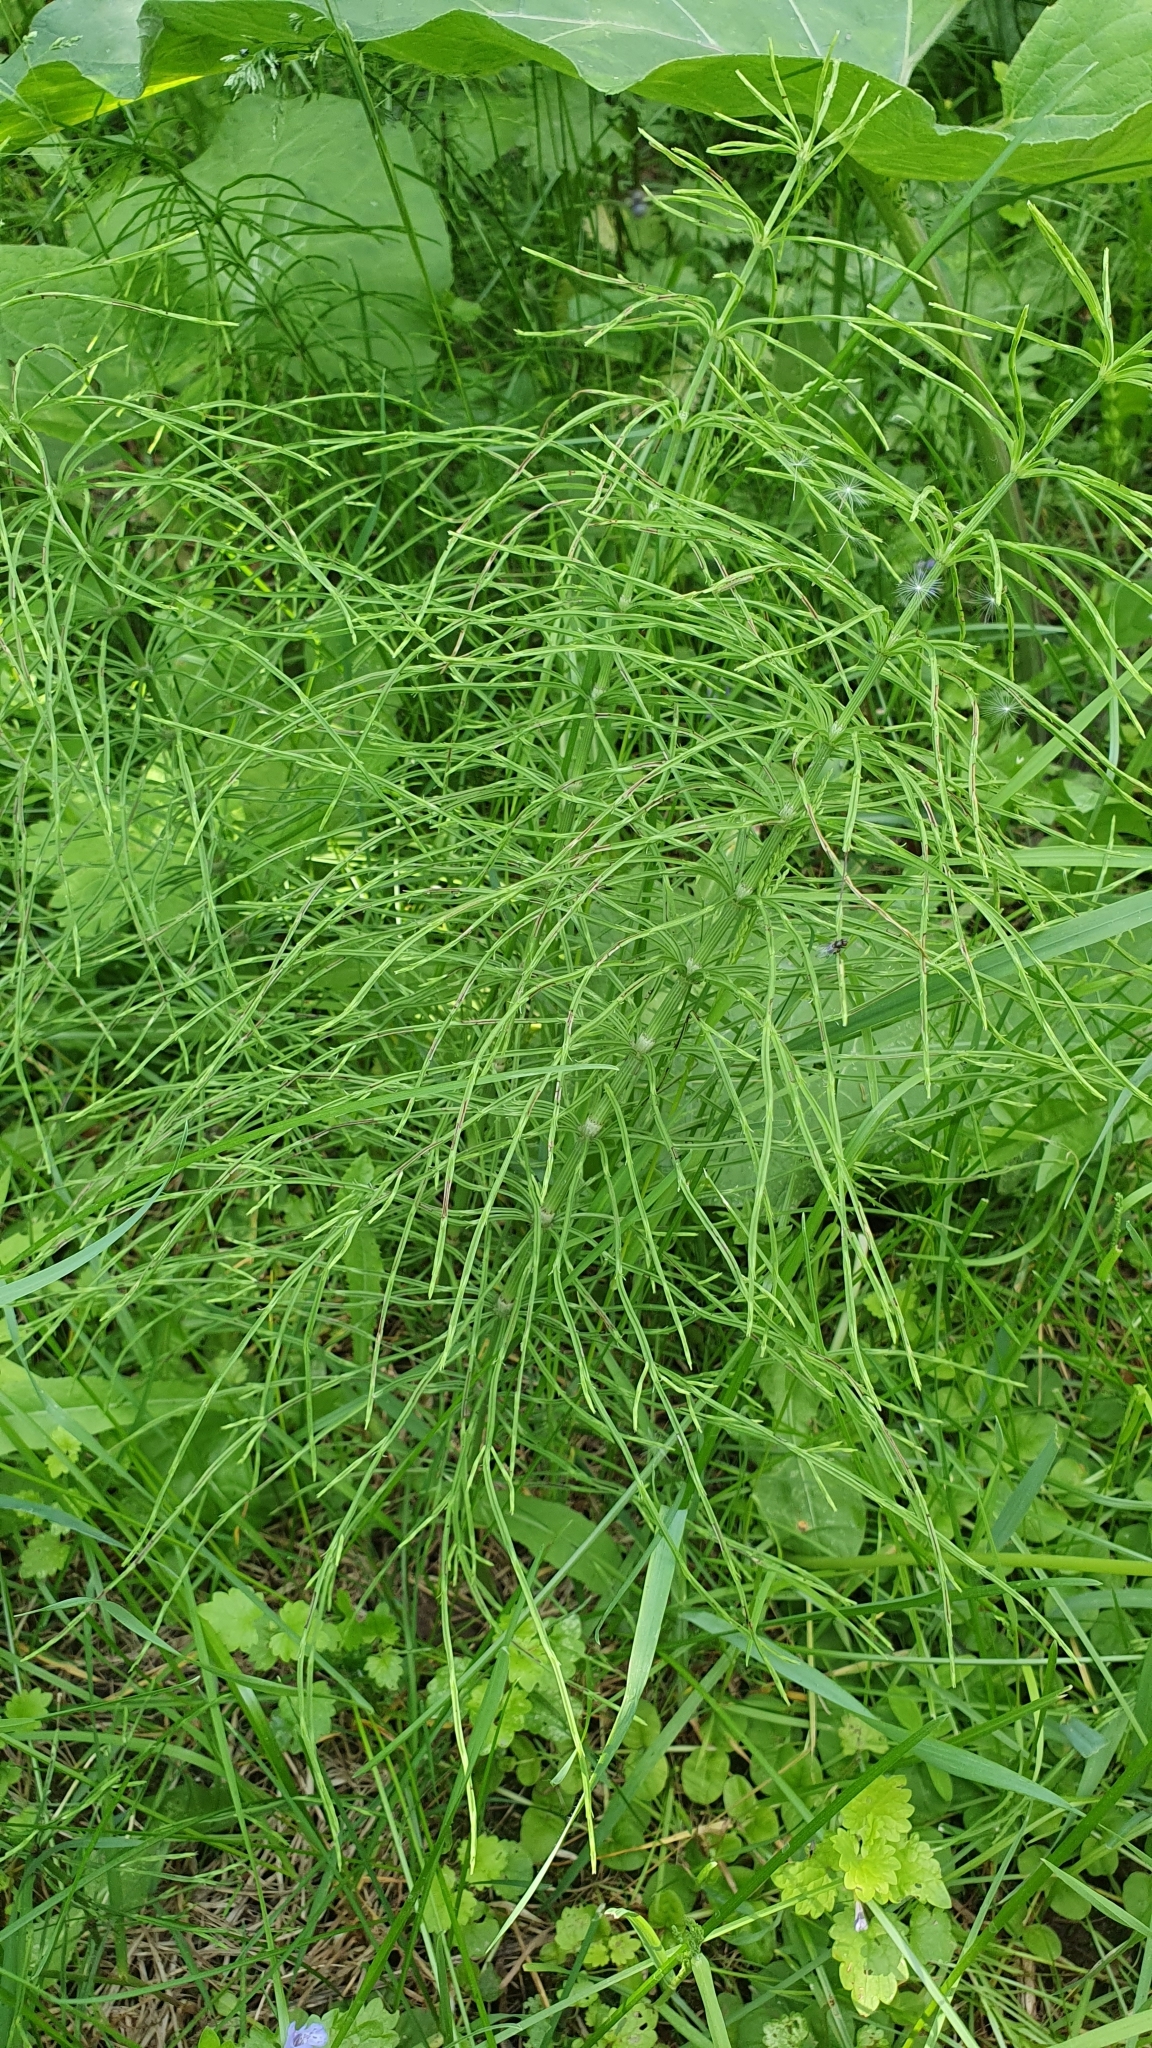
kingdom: Plantae
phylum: Tracheophyta
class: Polypodiopsida
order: Equisetales
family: Equisetaceae
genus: Equisetum
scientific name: Equisetum arvense
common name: Field horsetail
